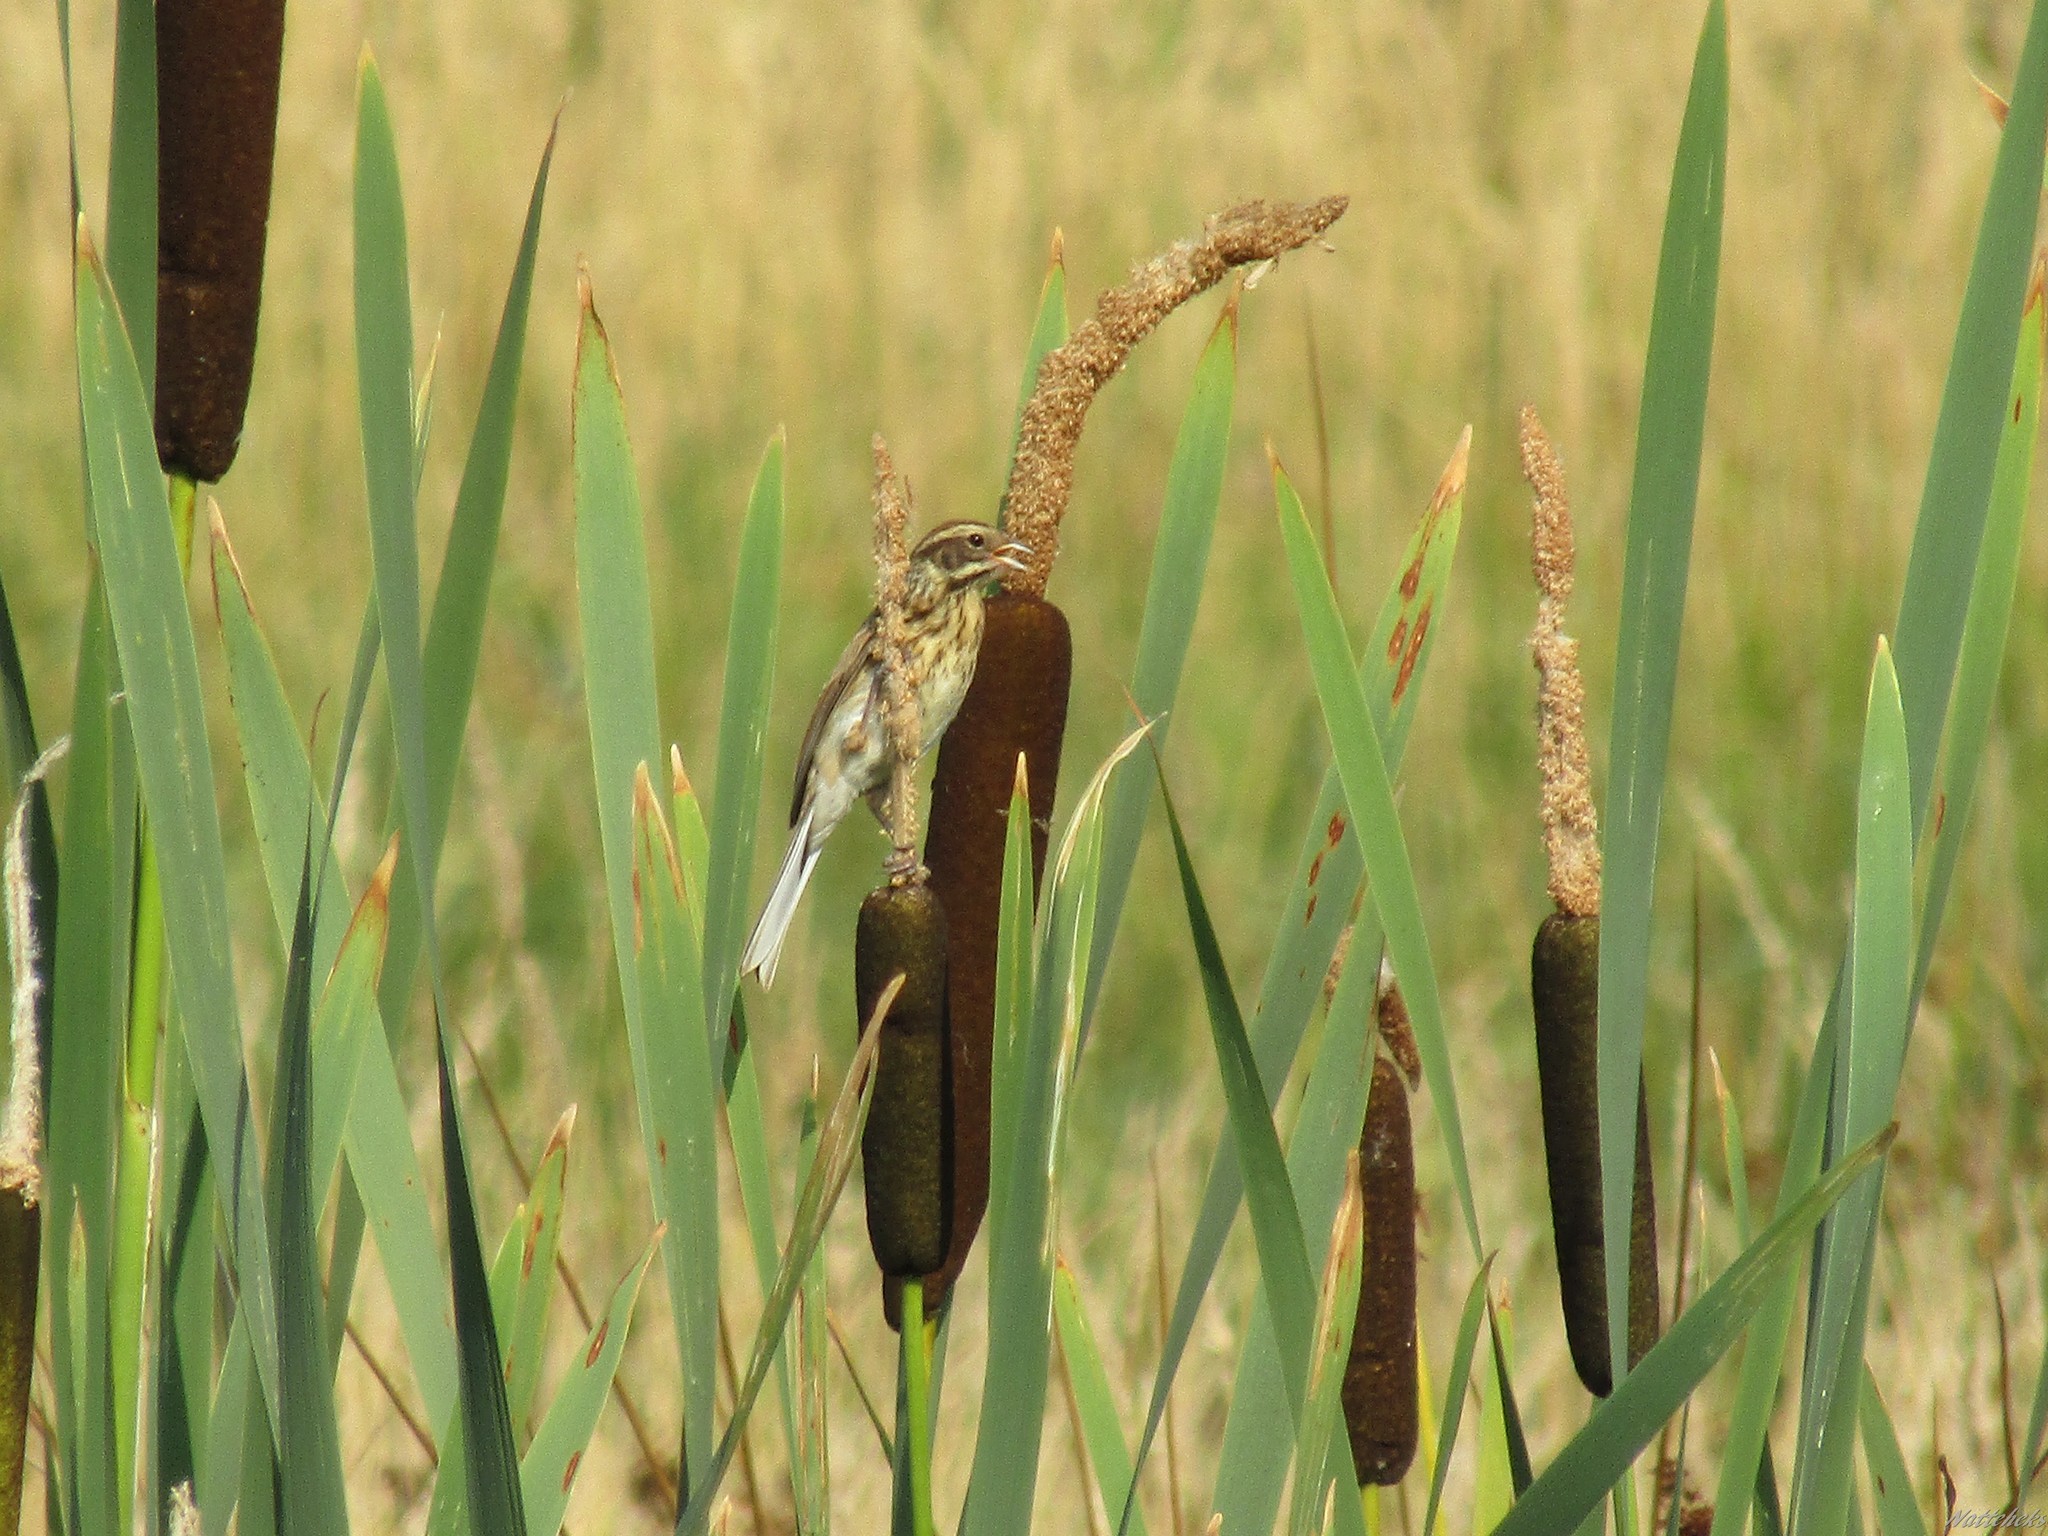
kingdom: Animalia
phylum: Chordata
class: Aves
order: Passeriformes
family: Emberizidae
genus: Emberiza
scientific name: Emberiza schoeniclus
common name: Reed bunting
